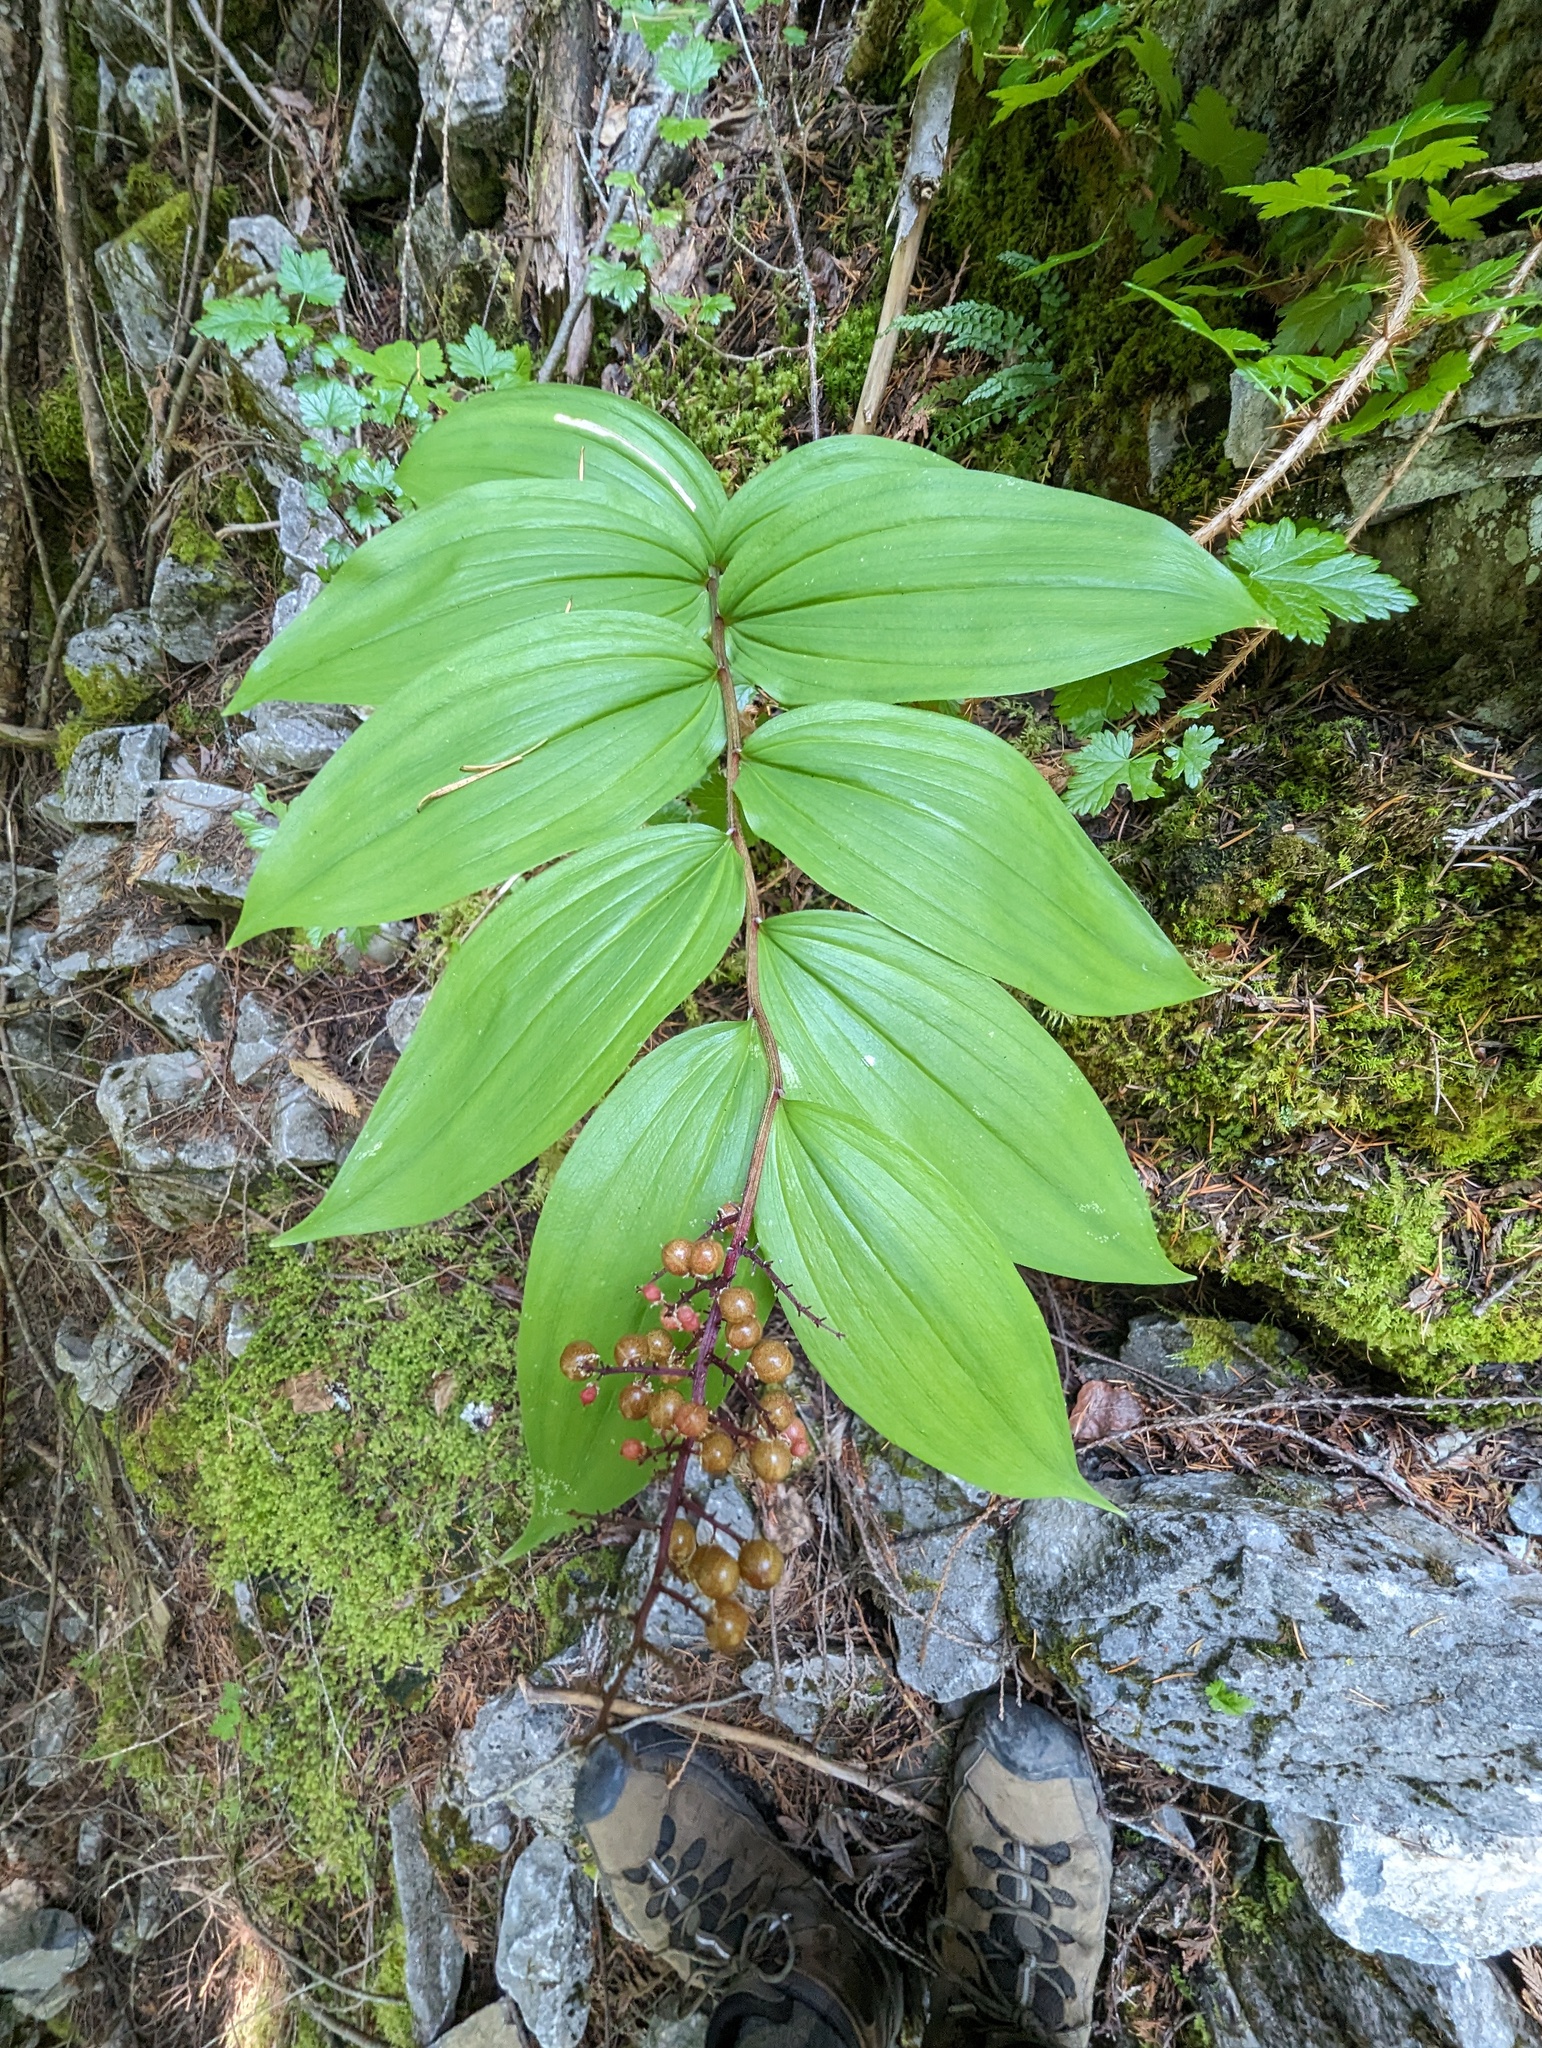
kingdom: Plantae
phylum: Tracheophyta
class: Liliopsida
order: Asparagales
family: Asparagaceae
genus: Maianthemum
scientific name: Maianthemum racemosum
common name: False spikenard
